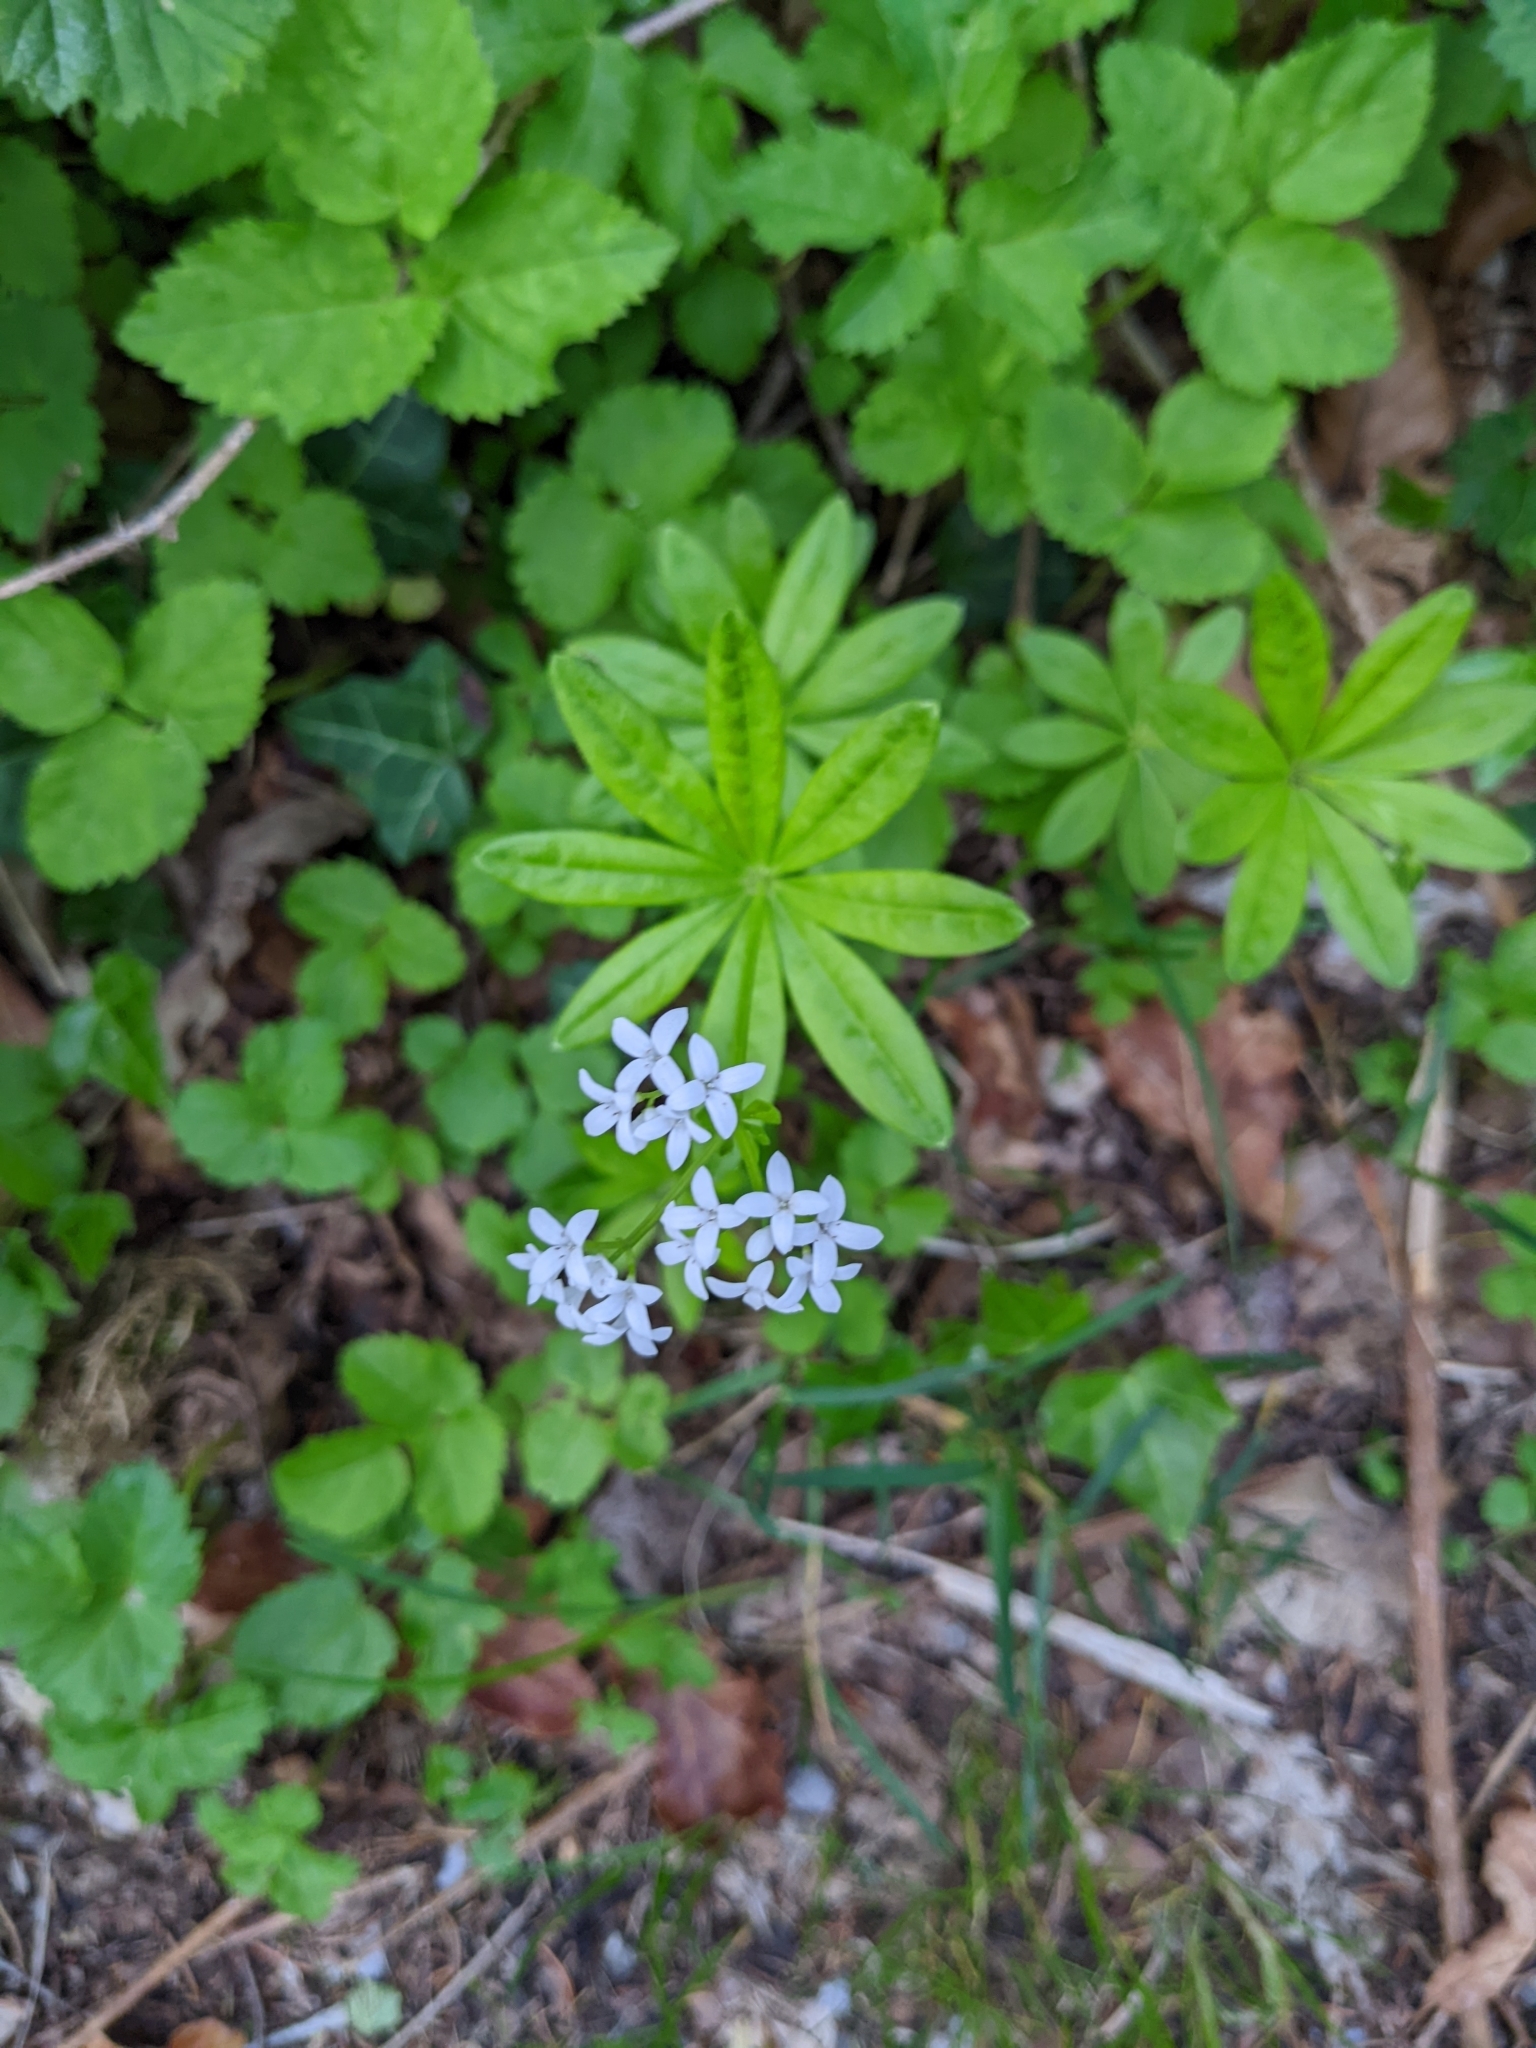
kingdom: Plantae
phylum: Tracheophyta
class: Magnoliopsida
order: Gentianales
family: Rubiaceae
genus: Galium
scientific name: Galium odoratum
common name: Sweet woodruff
